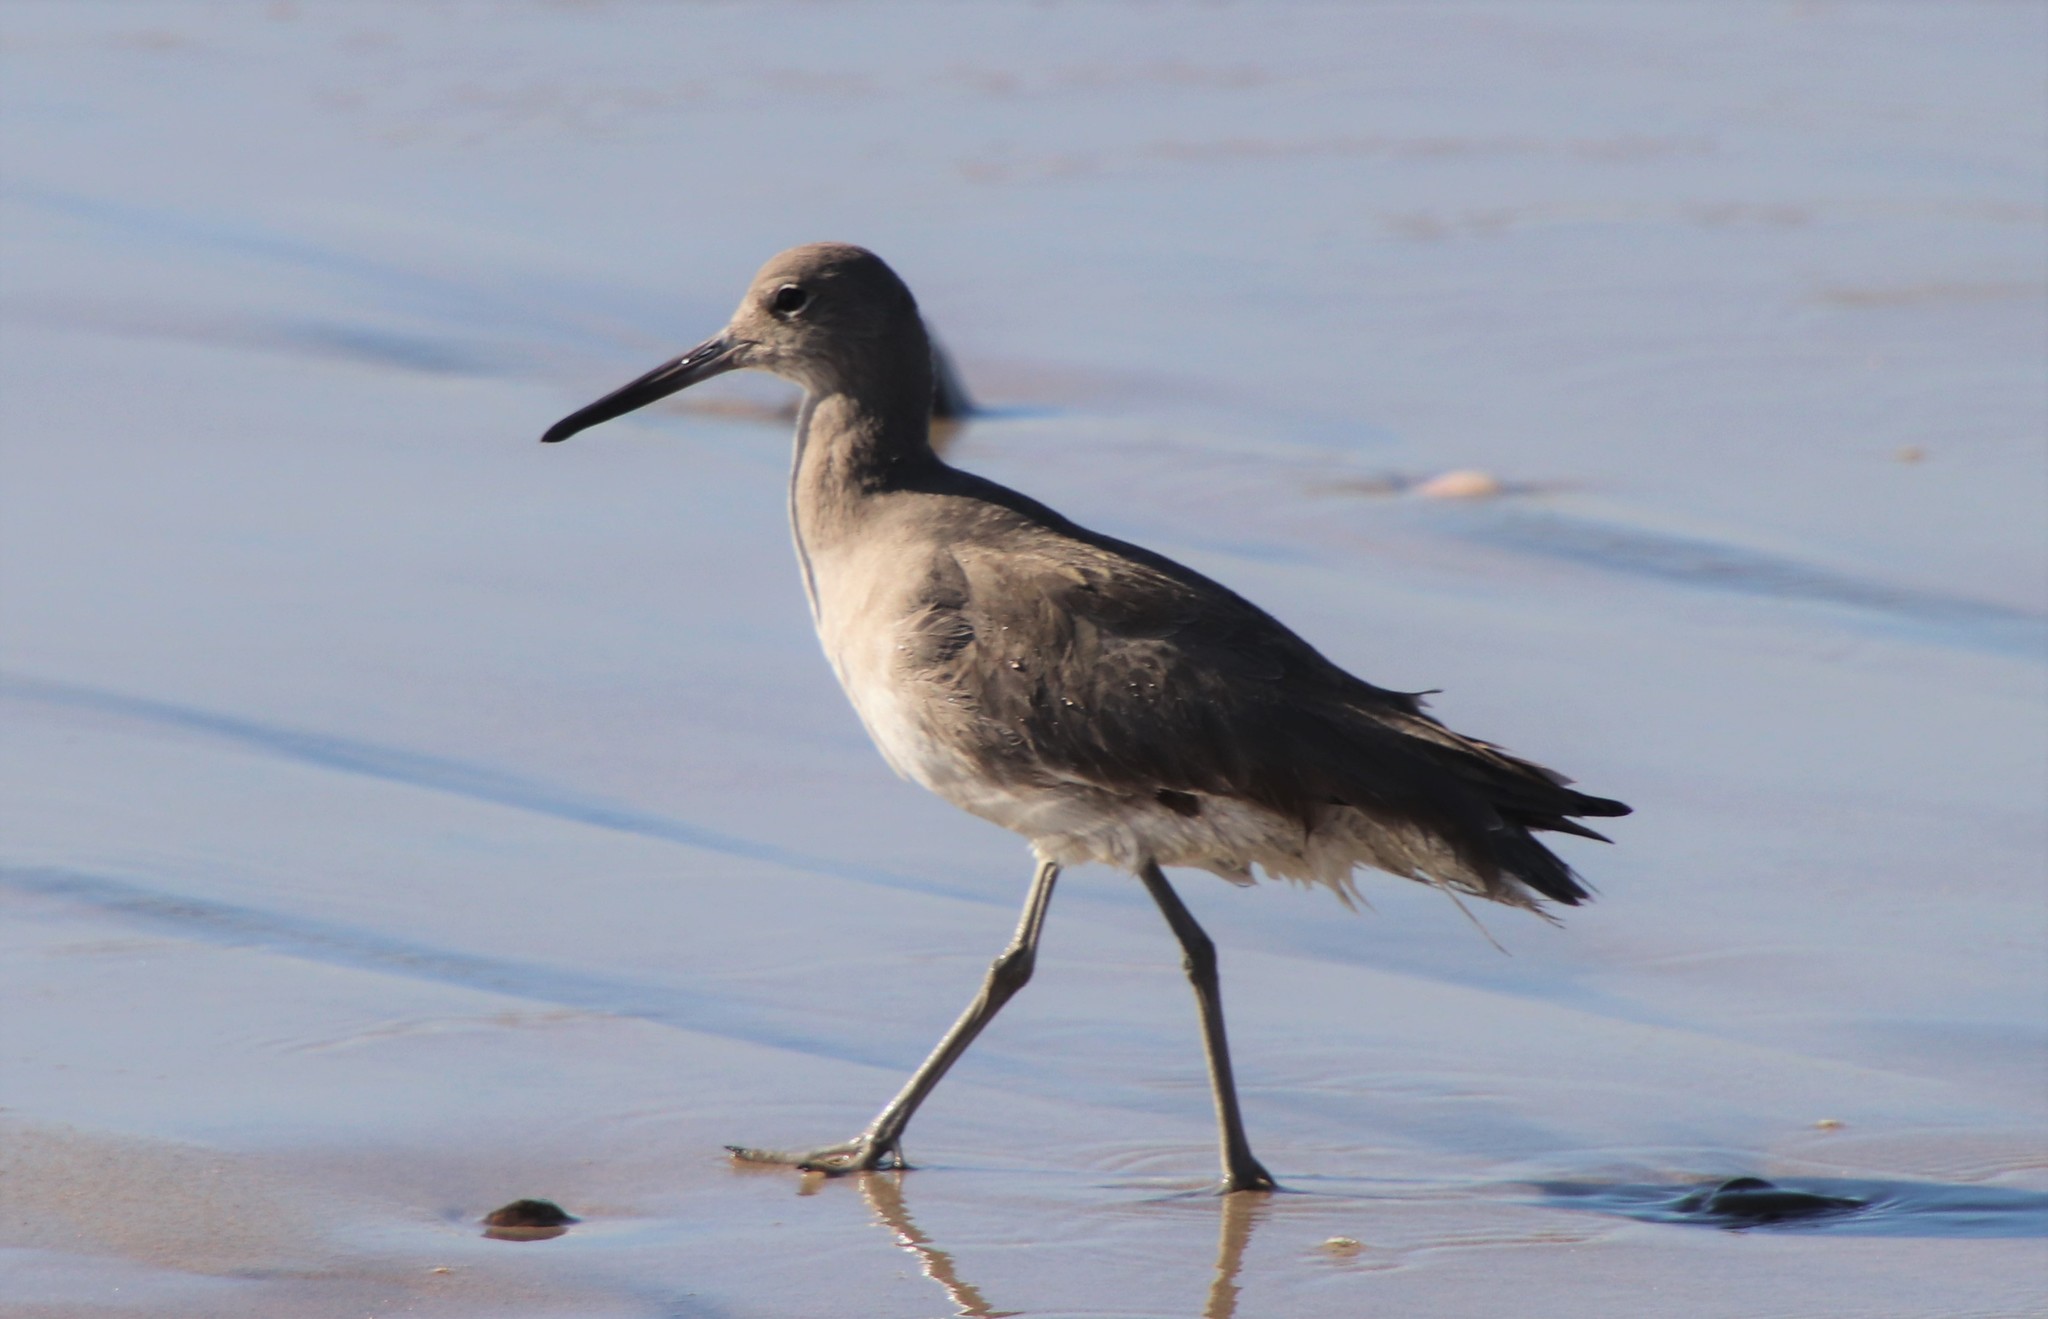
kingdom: Animalia
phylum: Chordata
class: Aves
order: Charadriiformes
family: Scolopacidae
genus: Tringa
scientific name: Tringa semipalmata
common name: Willet
